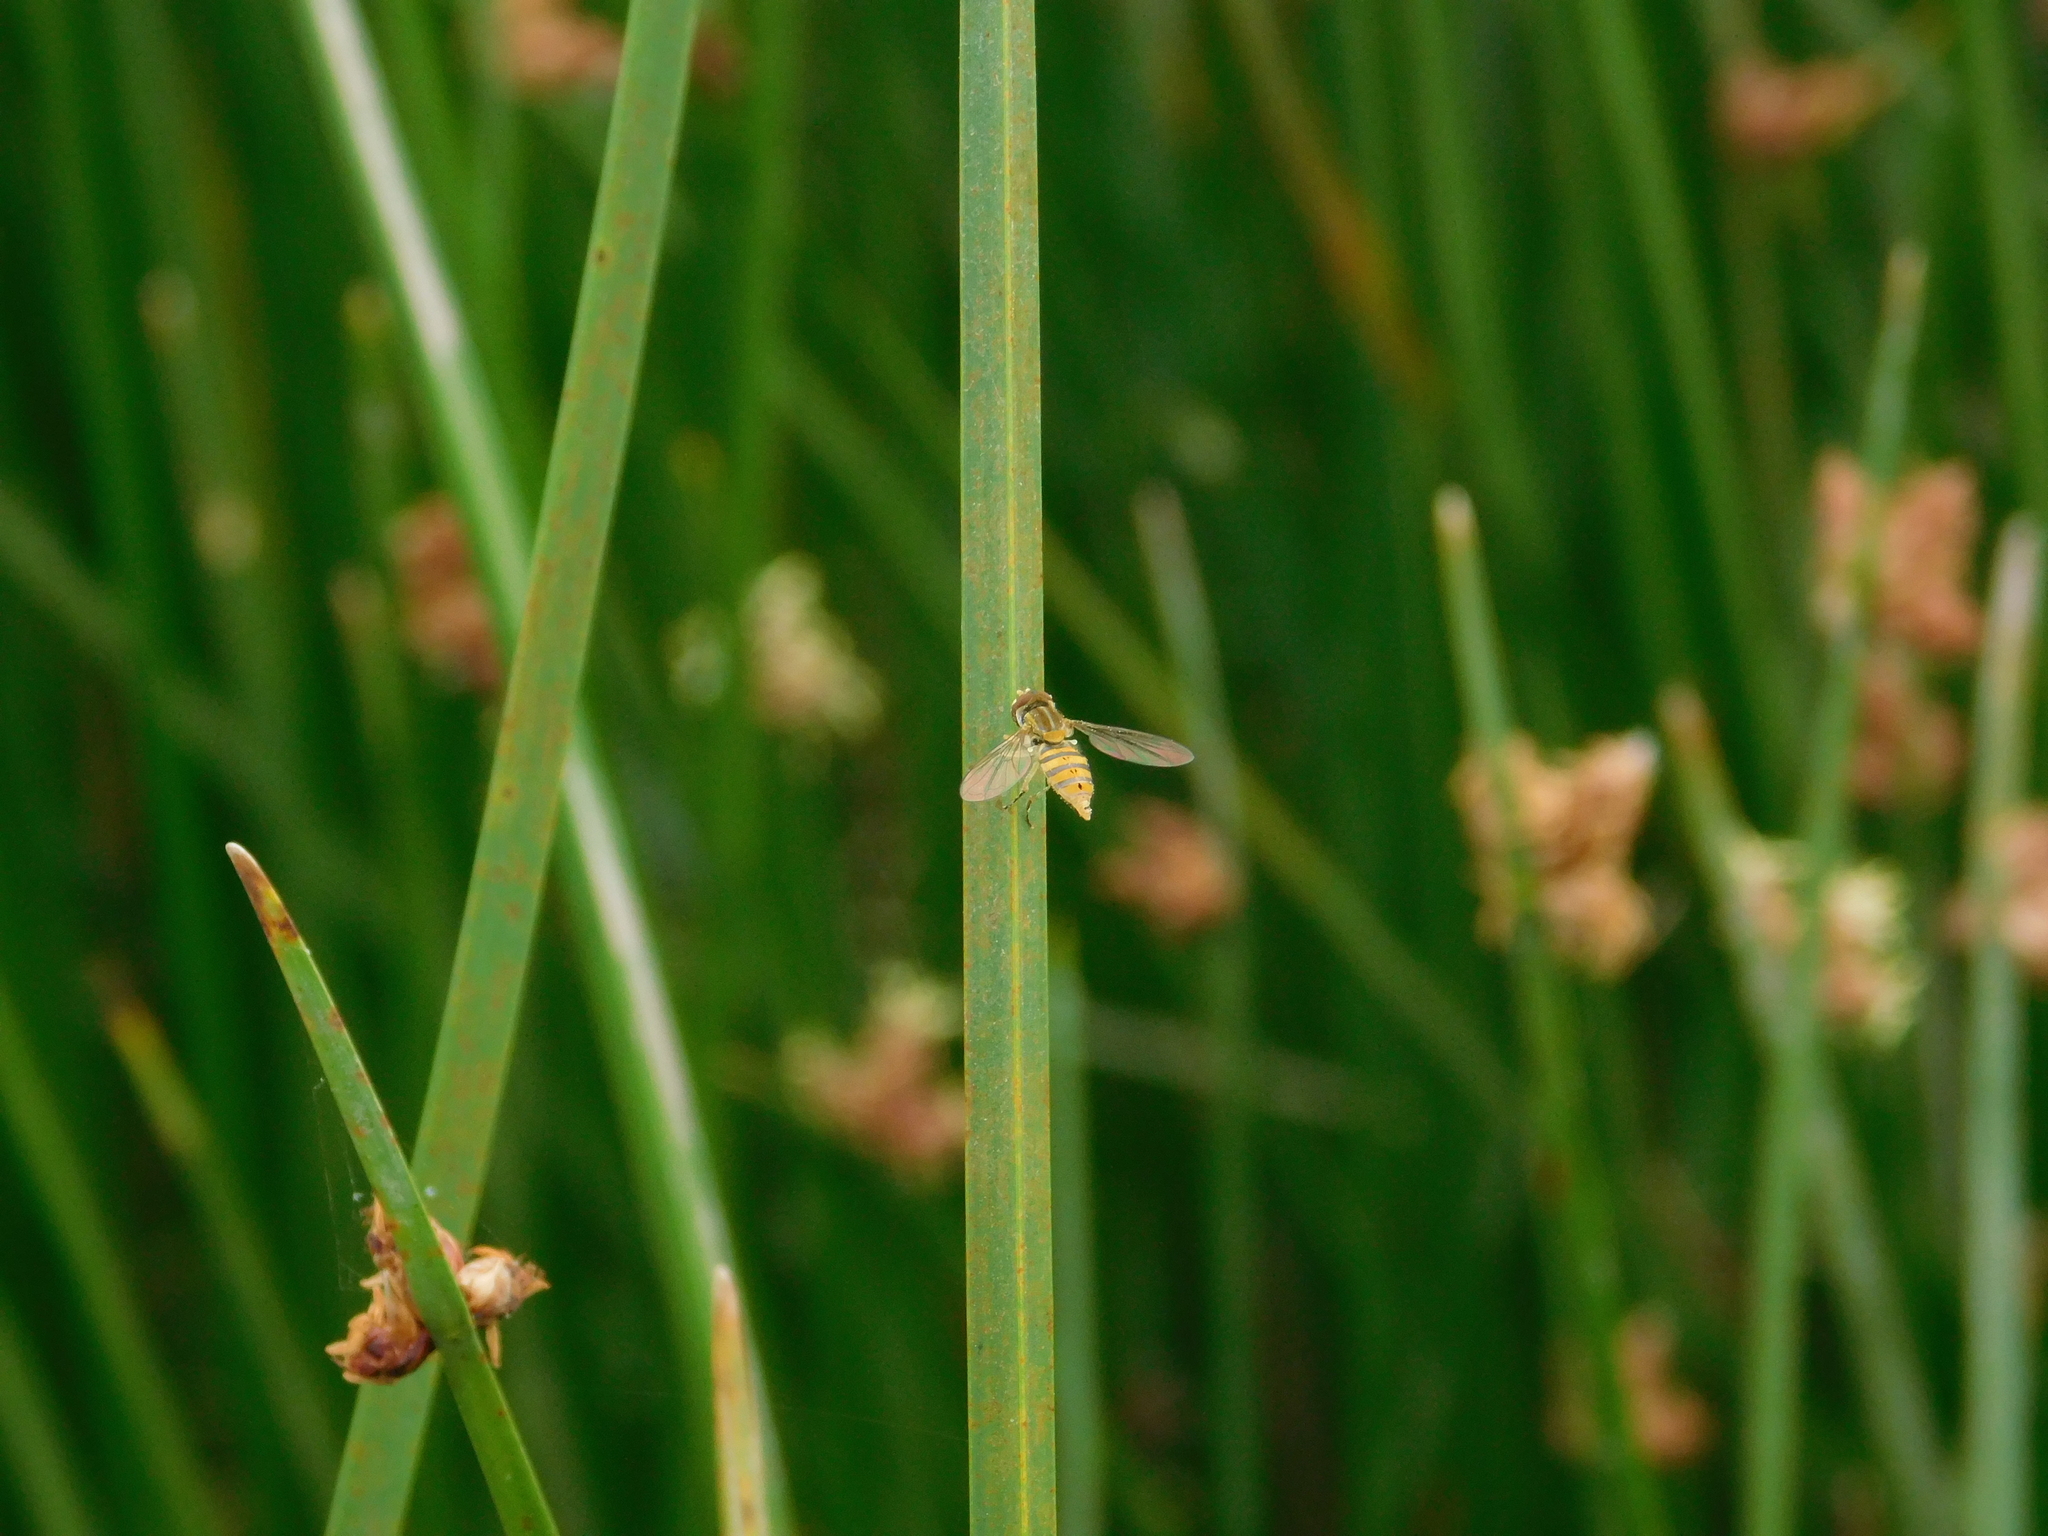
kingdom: Animalia
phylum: Arthropoda
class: Insecta
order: Diptera
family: Syrphidae
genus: Toxomerus
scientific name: Toxomerus
